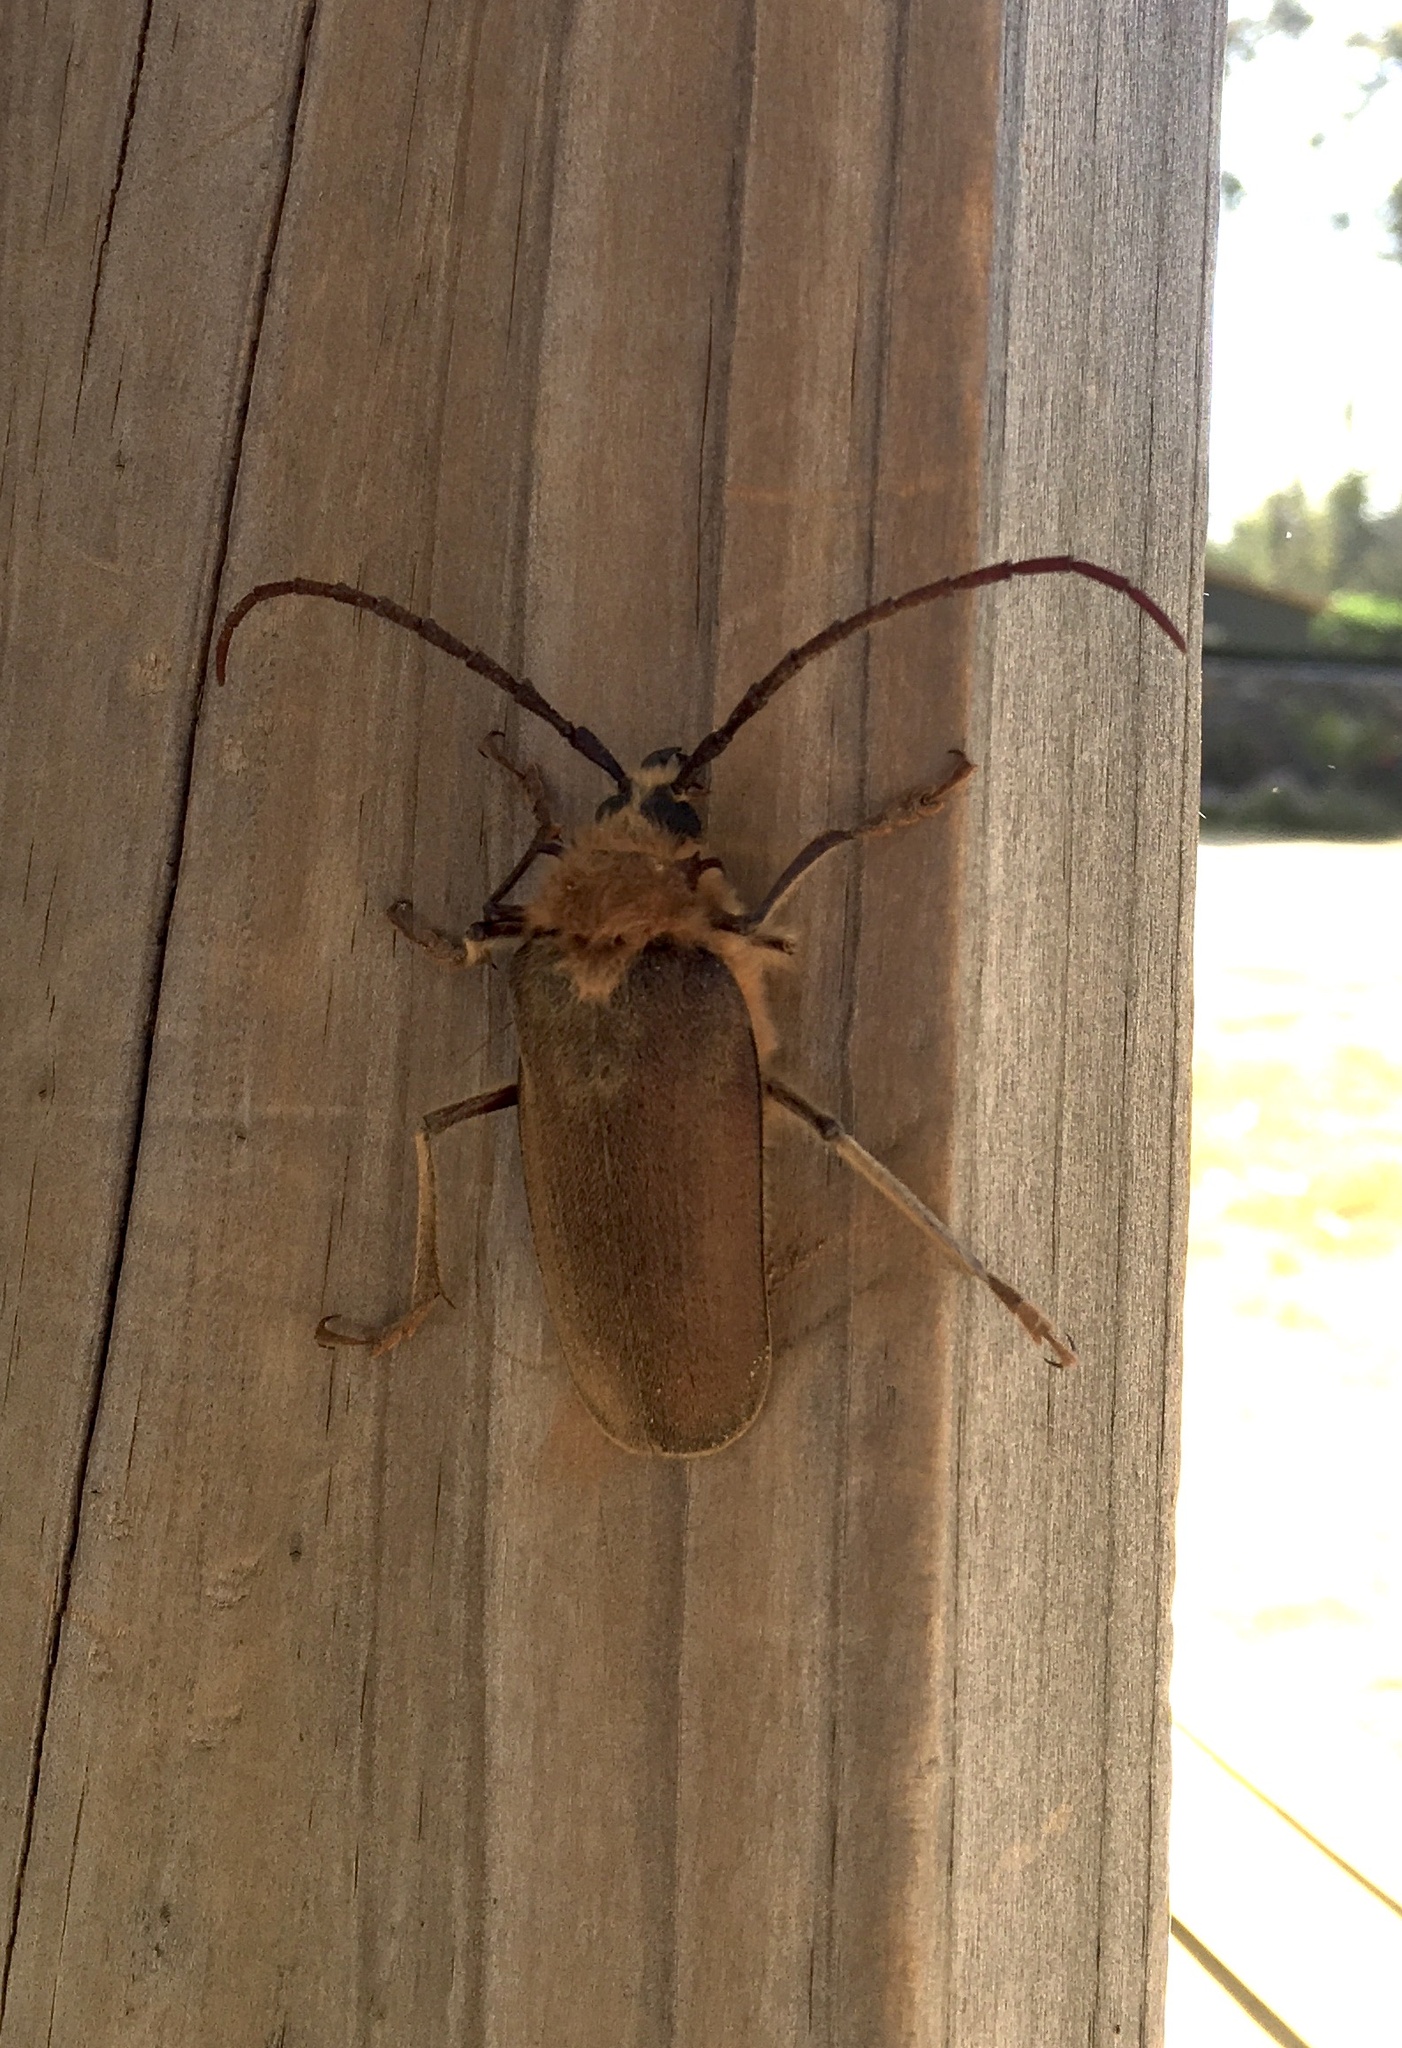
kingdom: Animalia
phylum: Arthropoda
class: Insecta
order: Coleoptera
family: Cerambycidae
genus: Acanthinodera
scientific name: Acanthinodera cumingii
